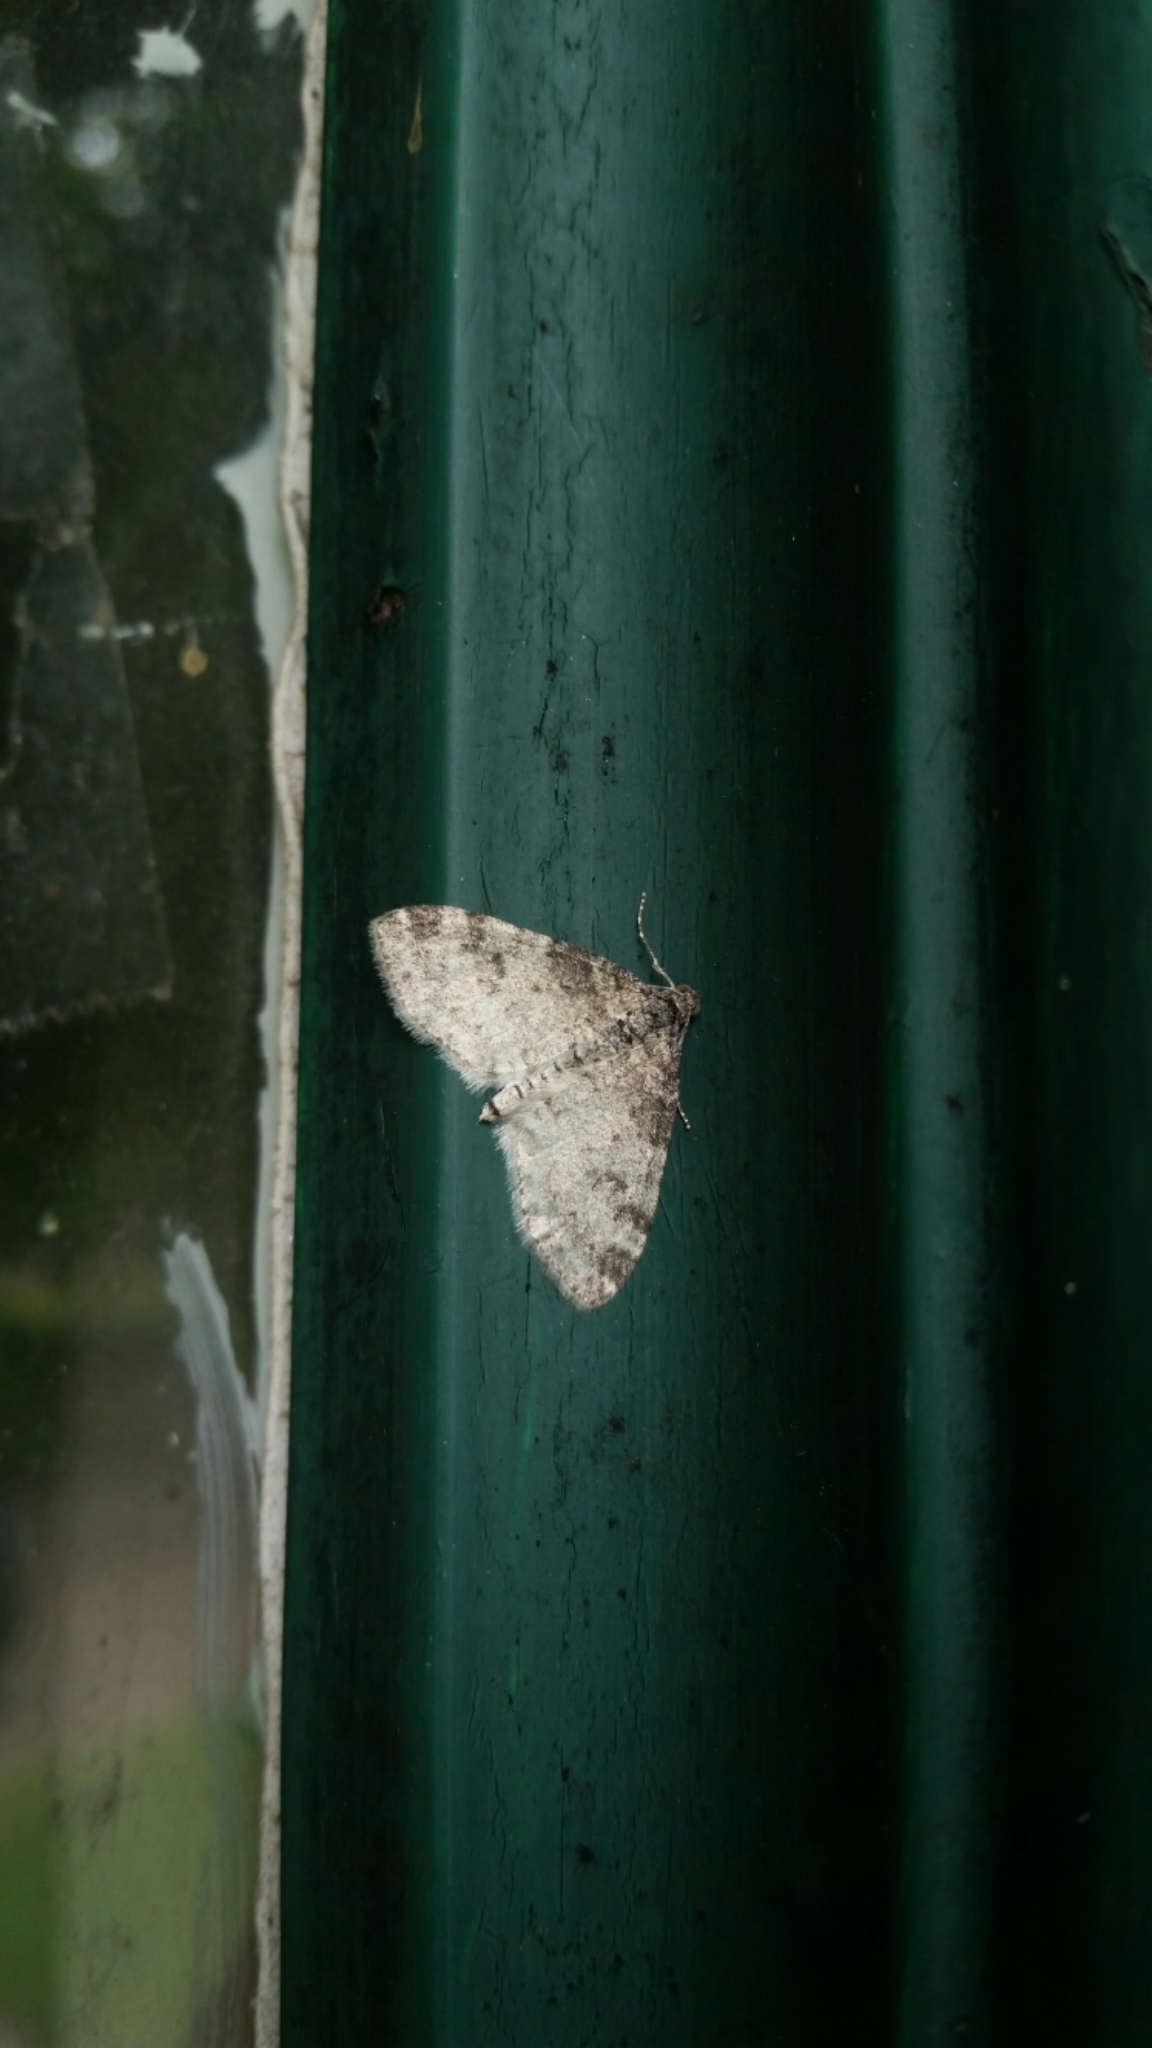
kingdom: Animalia
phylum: Arthropoda
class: Insecta
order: Lepidoptera
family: Geometridae
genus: Lobophora
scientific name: Lobophora nivigerata
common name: Powdered bigwing
